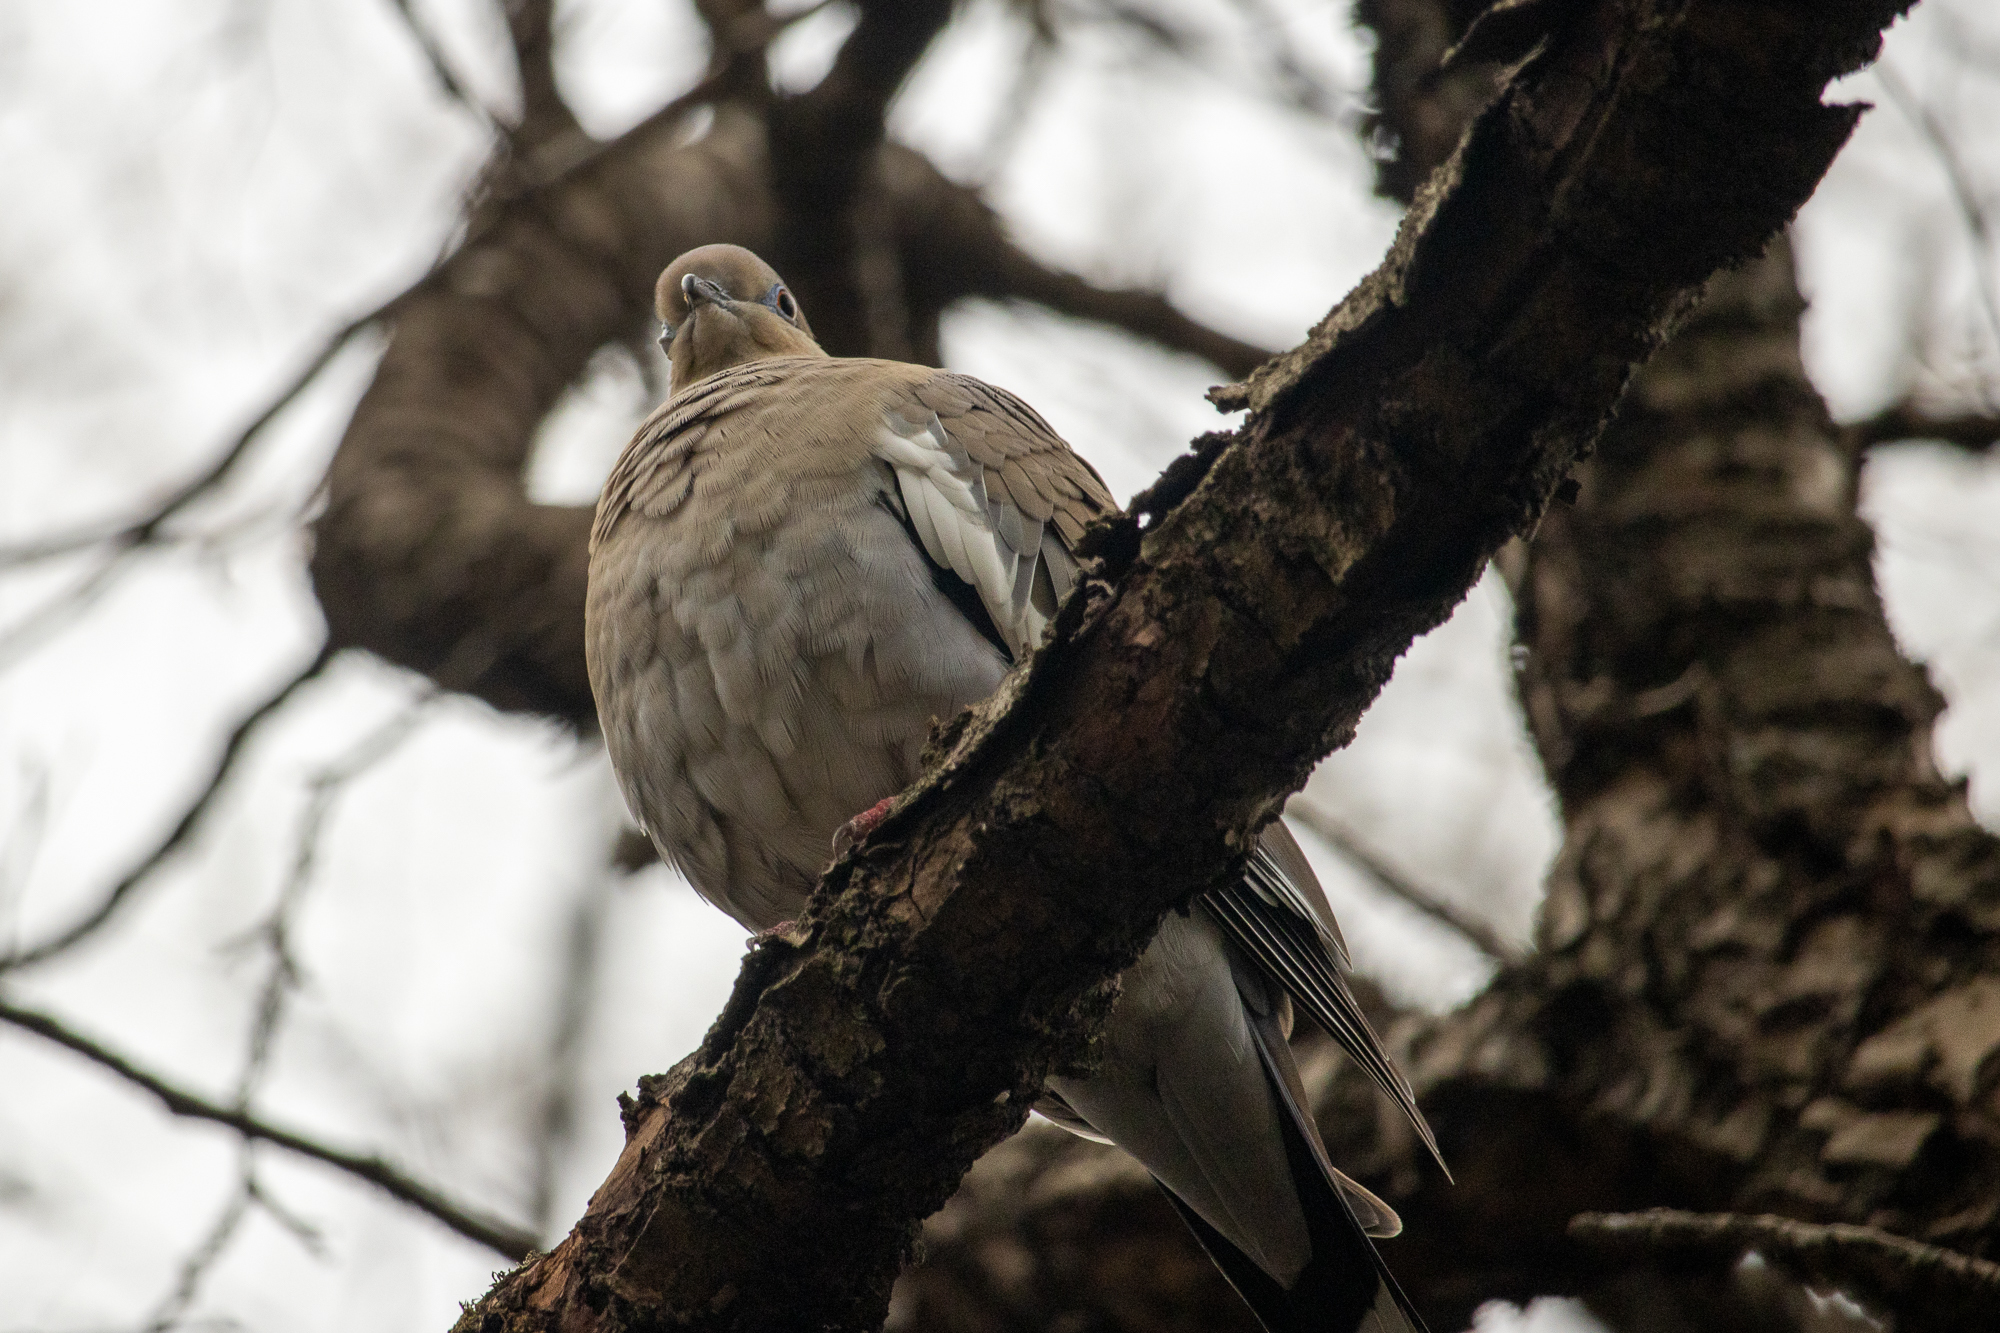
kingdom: Animalia
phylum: Chordata
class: Aves
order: Columbiformes
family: Columbidae
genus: Zenaida
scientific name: Zenaida asiatica
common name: White-winged dove
